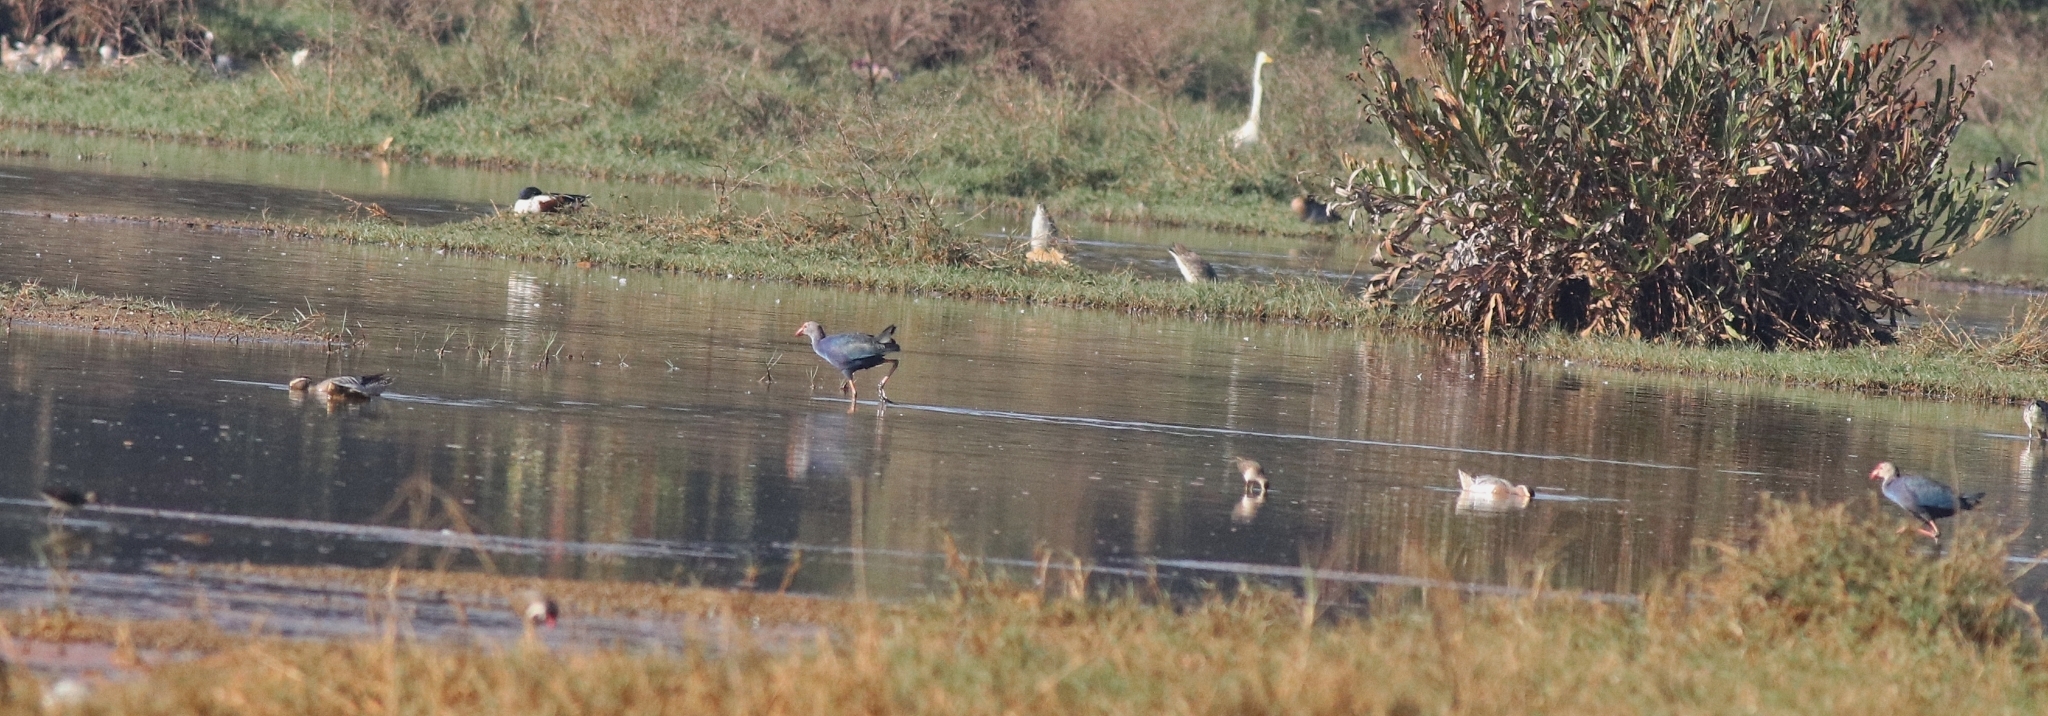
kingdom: Animalia
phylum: Chordata
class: Aves
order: Gruiformes
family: Rallidae
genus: Porphyrio
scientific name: Porphyrio porphyrio
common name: Purple swamphen
